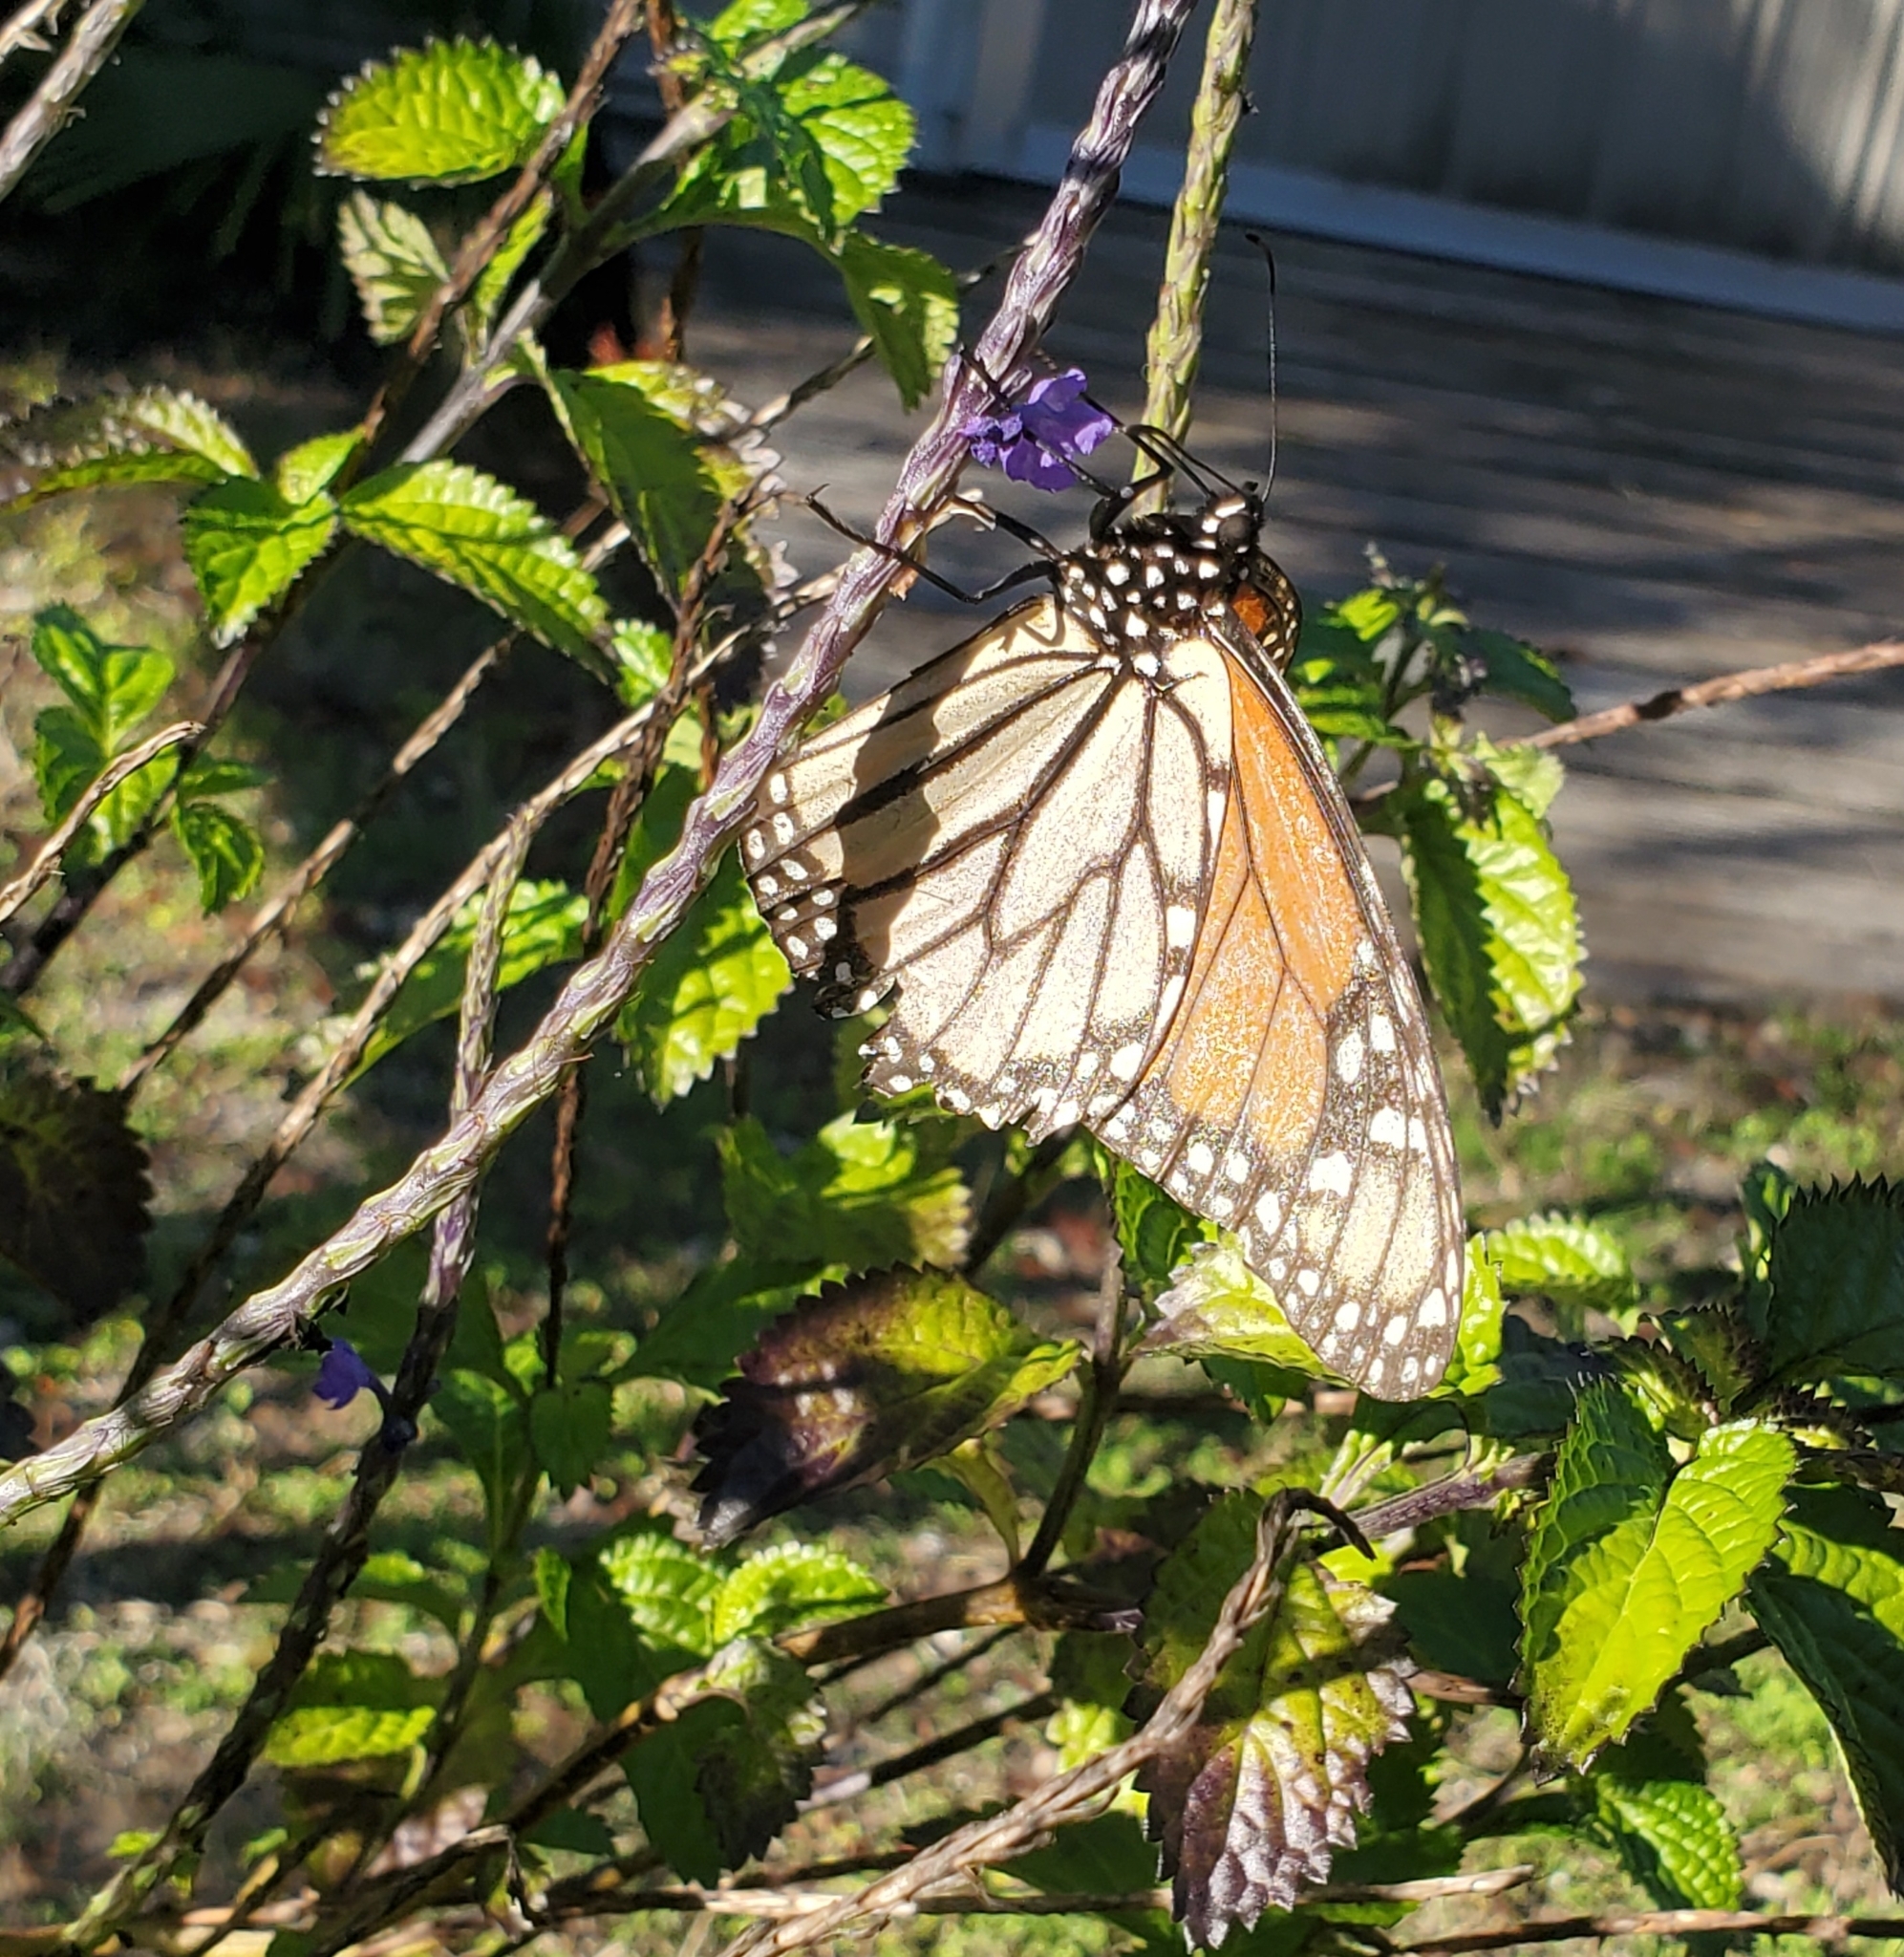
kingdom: Animalia
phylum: Arthropoda
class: Insecta
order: Lepidoptera
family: Nymphalidae
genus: Danaus
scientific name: Danaus plexippus
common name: Monarch
